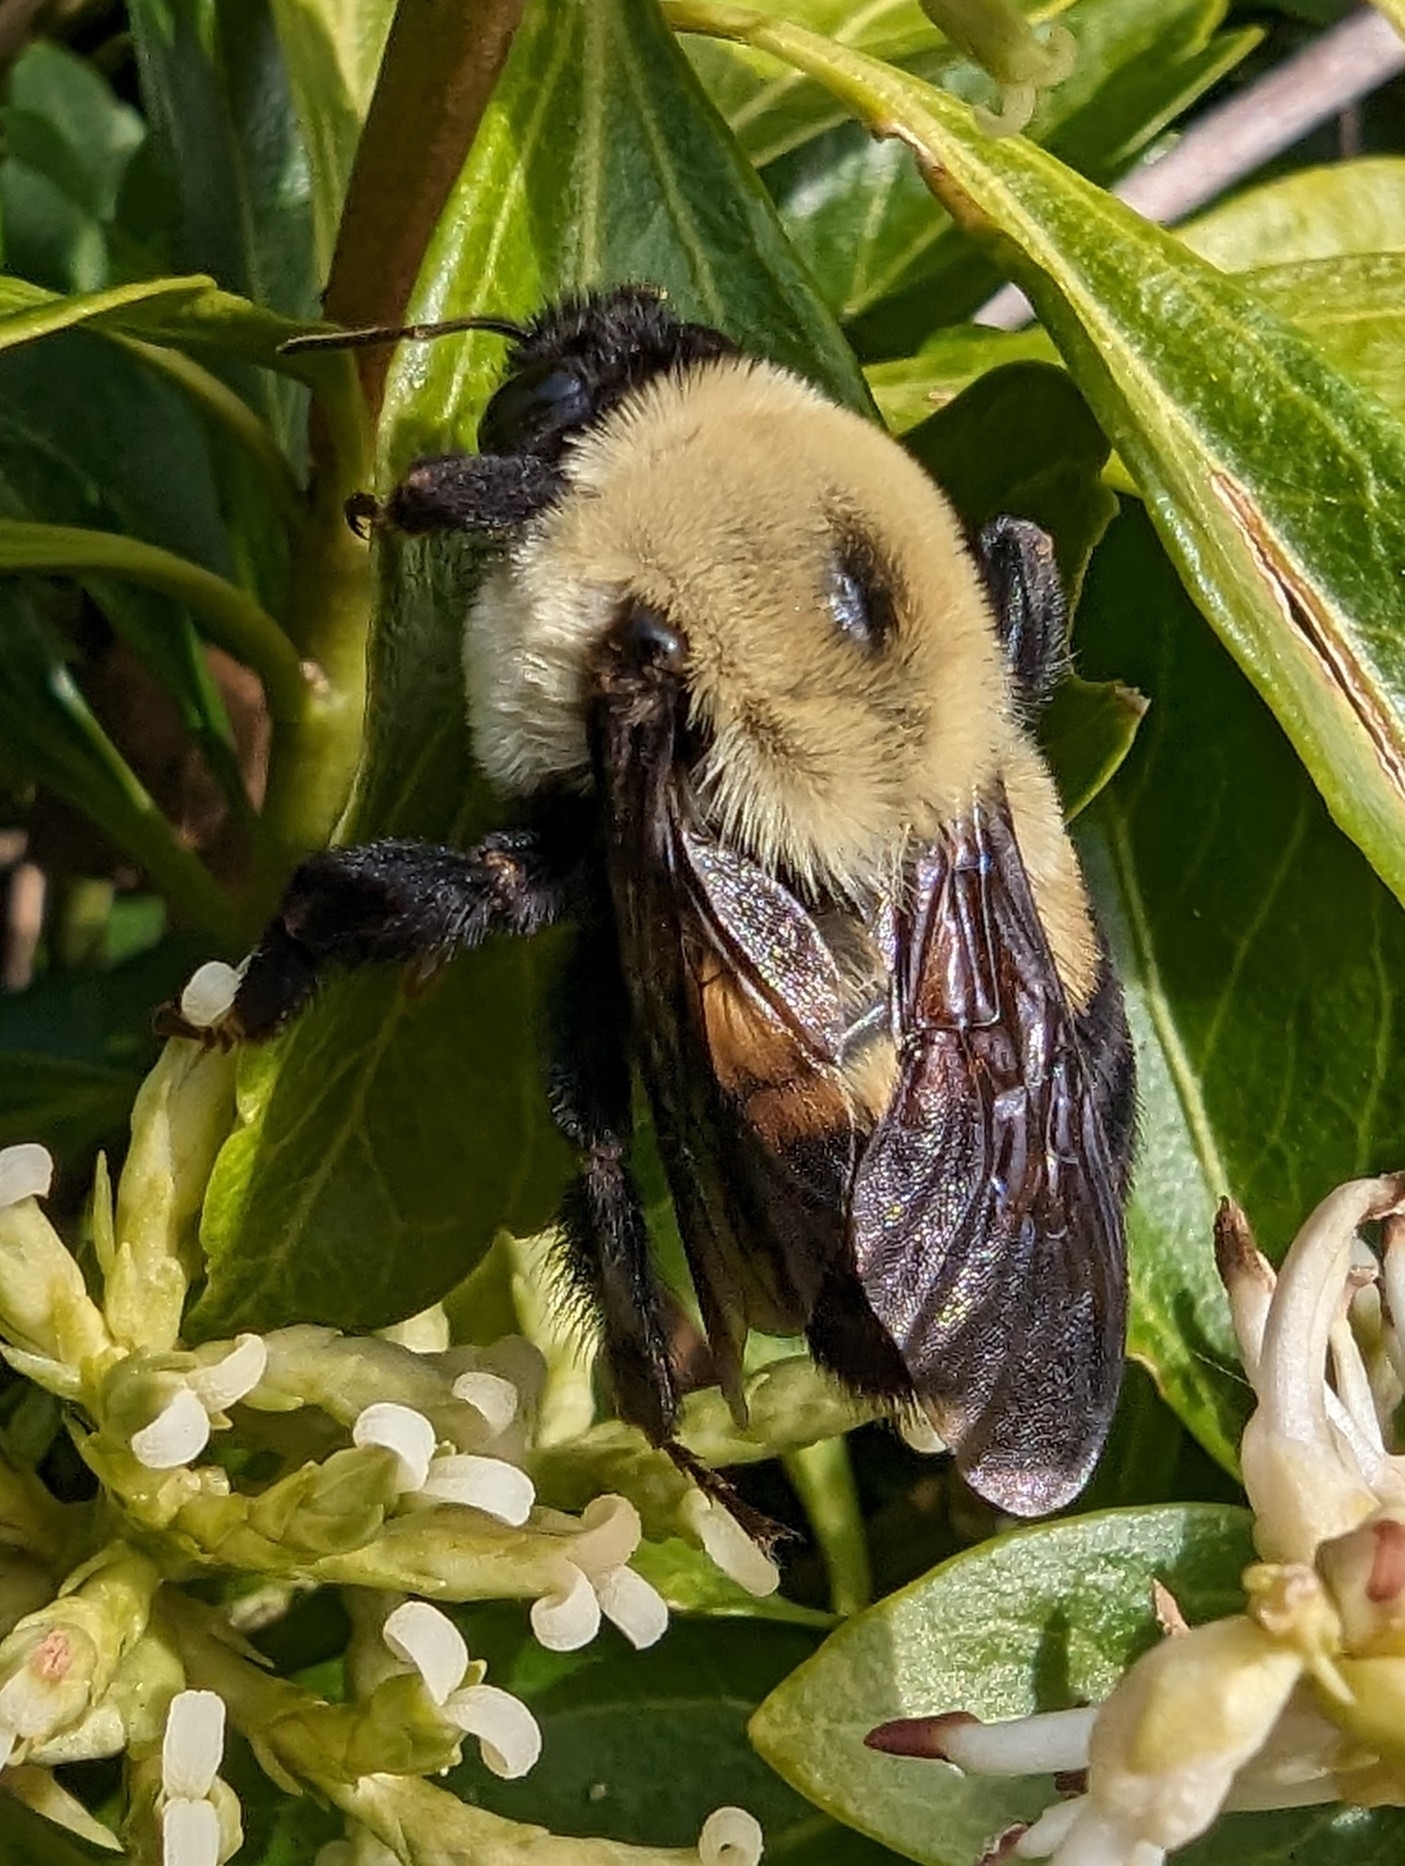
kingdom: Animalia
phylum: Arthropoda
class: Insecta
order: Hymenoptera
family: Apidae
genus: Bombus
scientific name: Bombus griseocollis
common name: Brown-belted bumble bee
